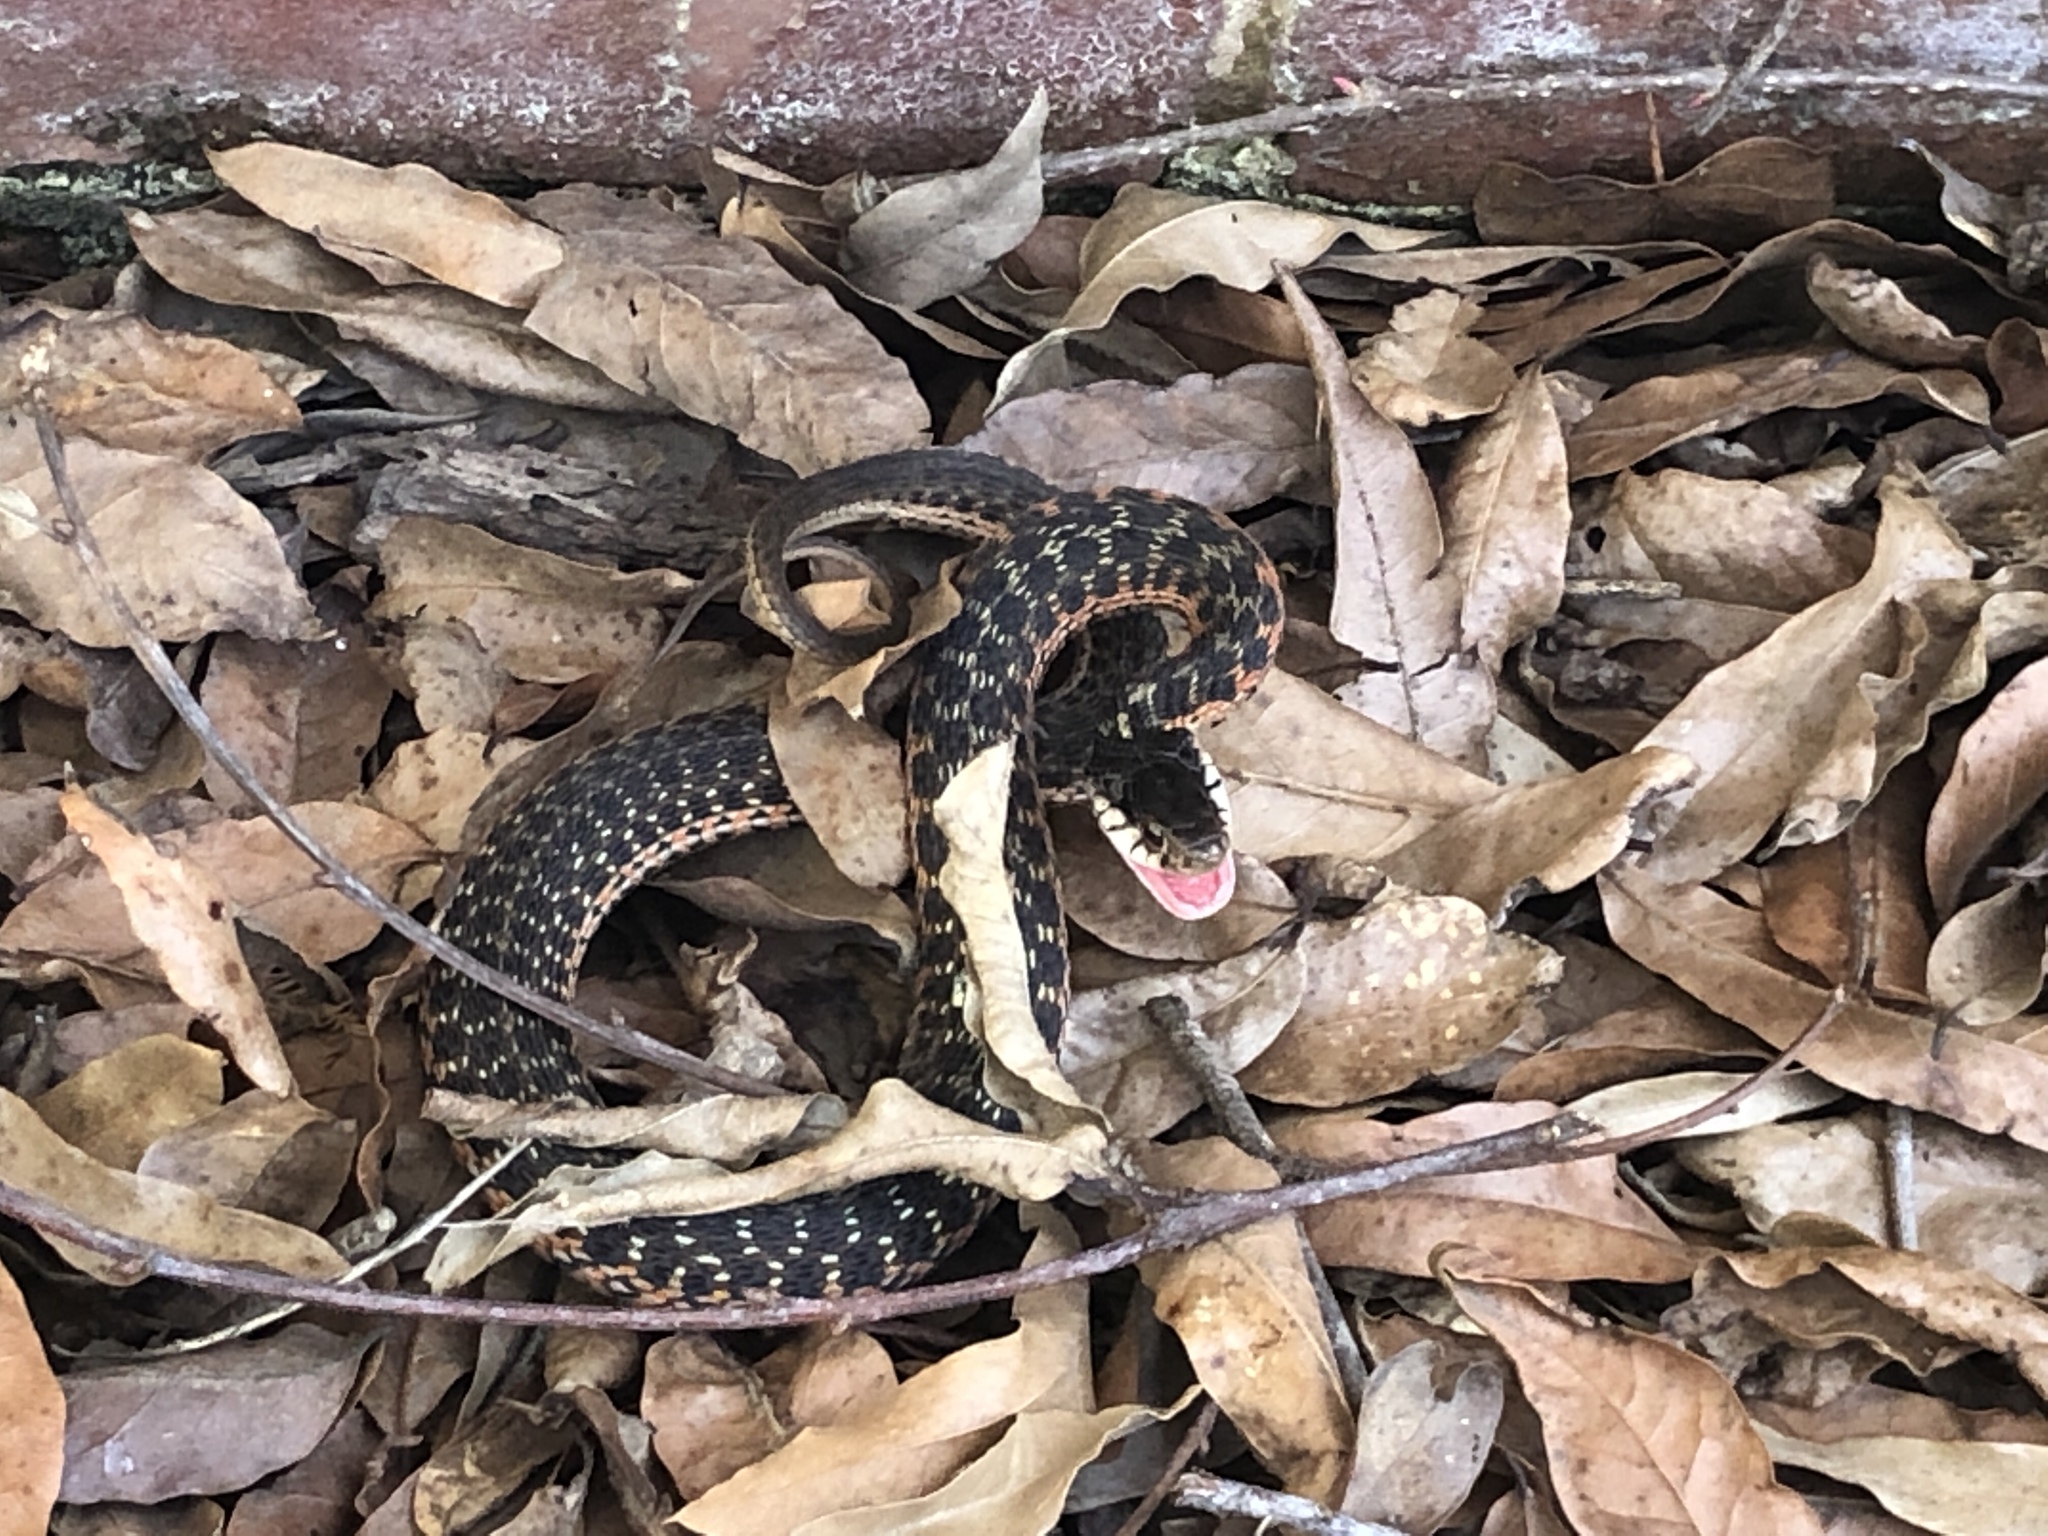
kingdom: Animalia
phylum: Chordata
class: Squamata
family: Colubridae
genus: Thamnophis
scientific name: Thamnophis sirtalis
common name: Common garter snake
